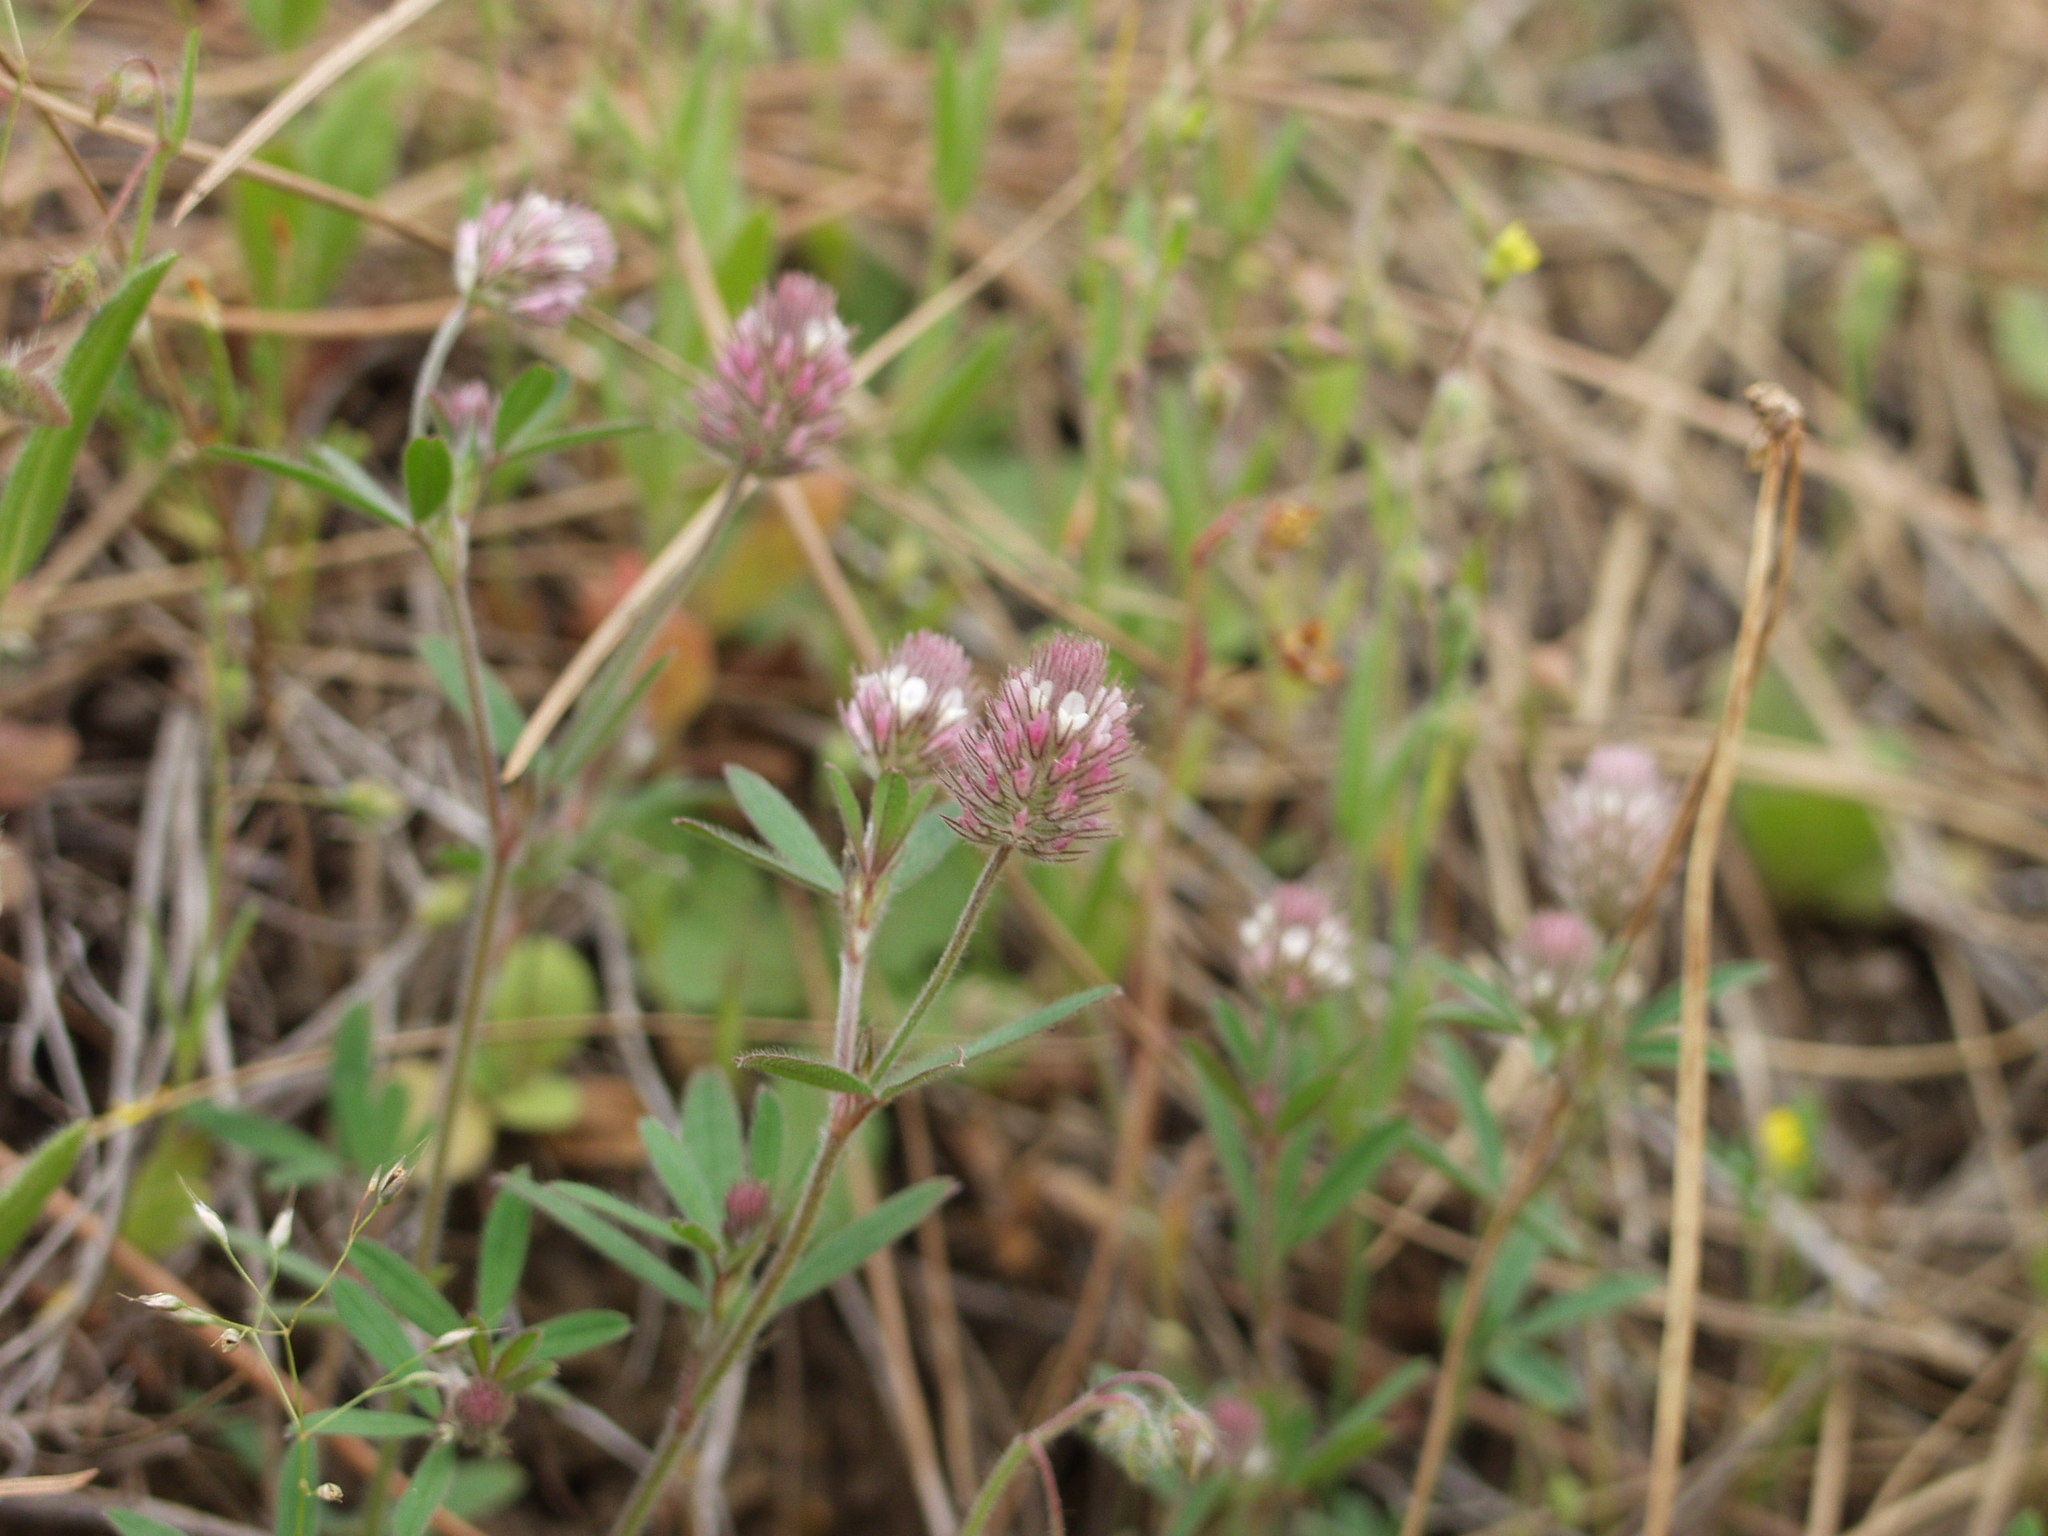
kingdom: Plantae
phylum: Tracheophyta
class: Magnoliopsida
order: Fabales
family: Fabaceae
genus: Trifolium
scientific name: Trifolium arvense
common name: Hare's-foot clover
